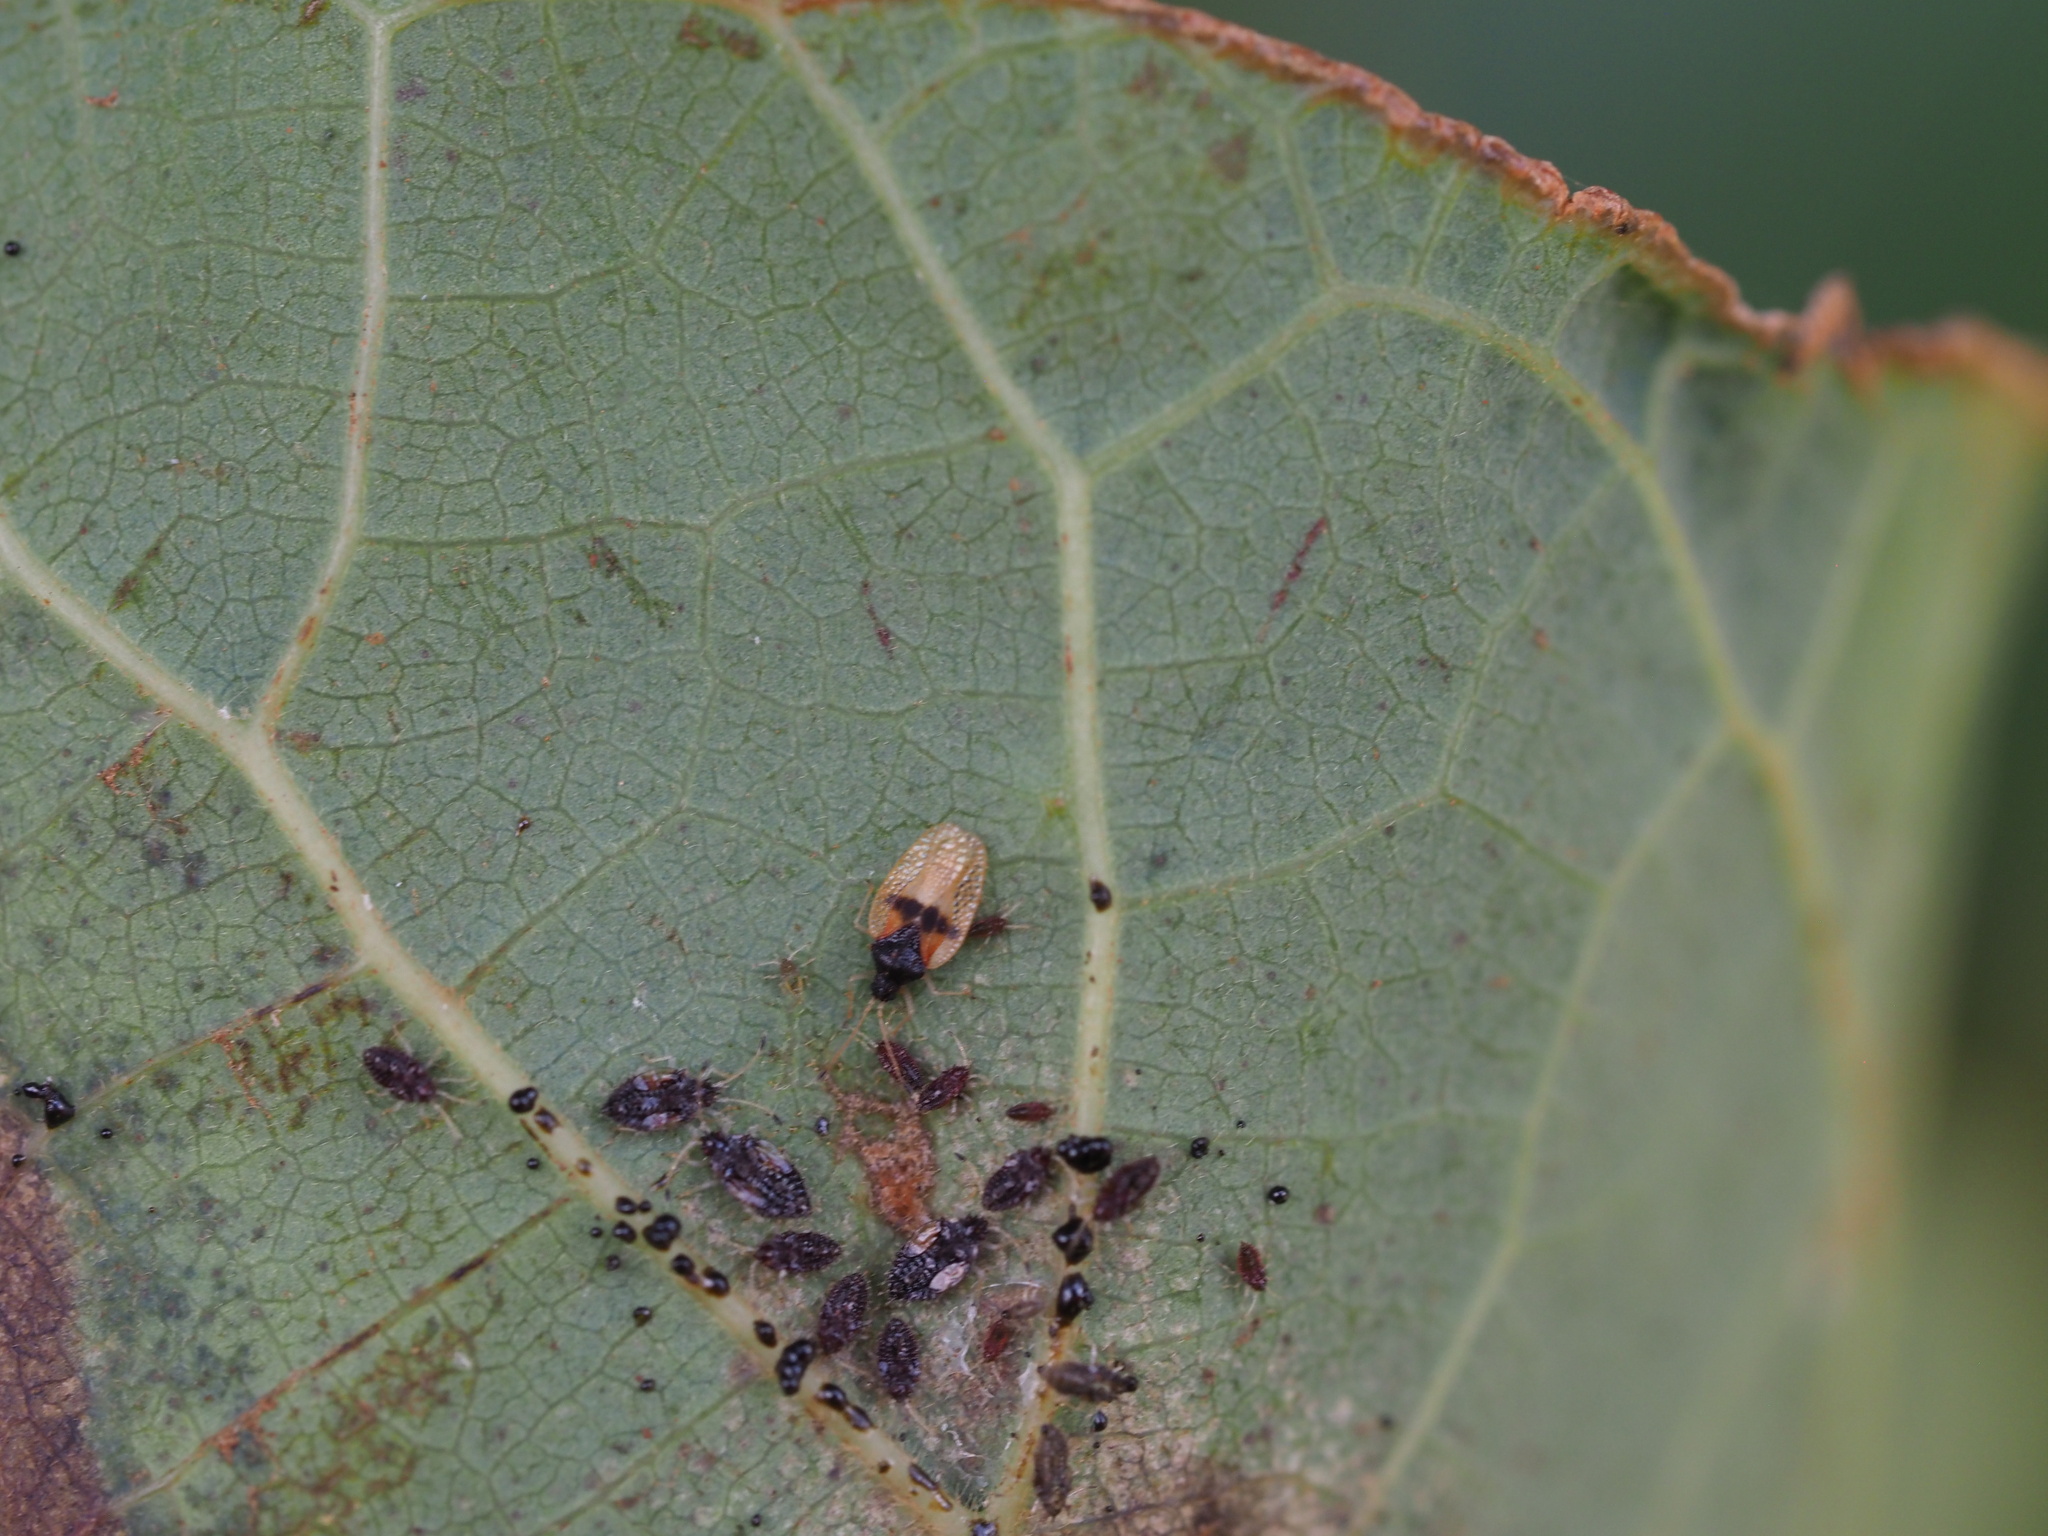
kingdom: Animalia
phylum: Arthropoda
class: Insecta
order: Hemiptera
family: Tingidae
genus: Pseudacysta
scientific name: Pseudacysta perseae
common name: Avocado lace bug
